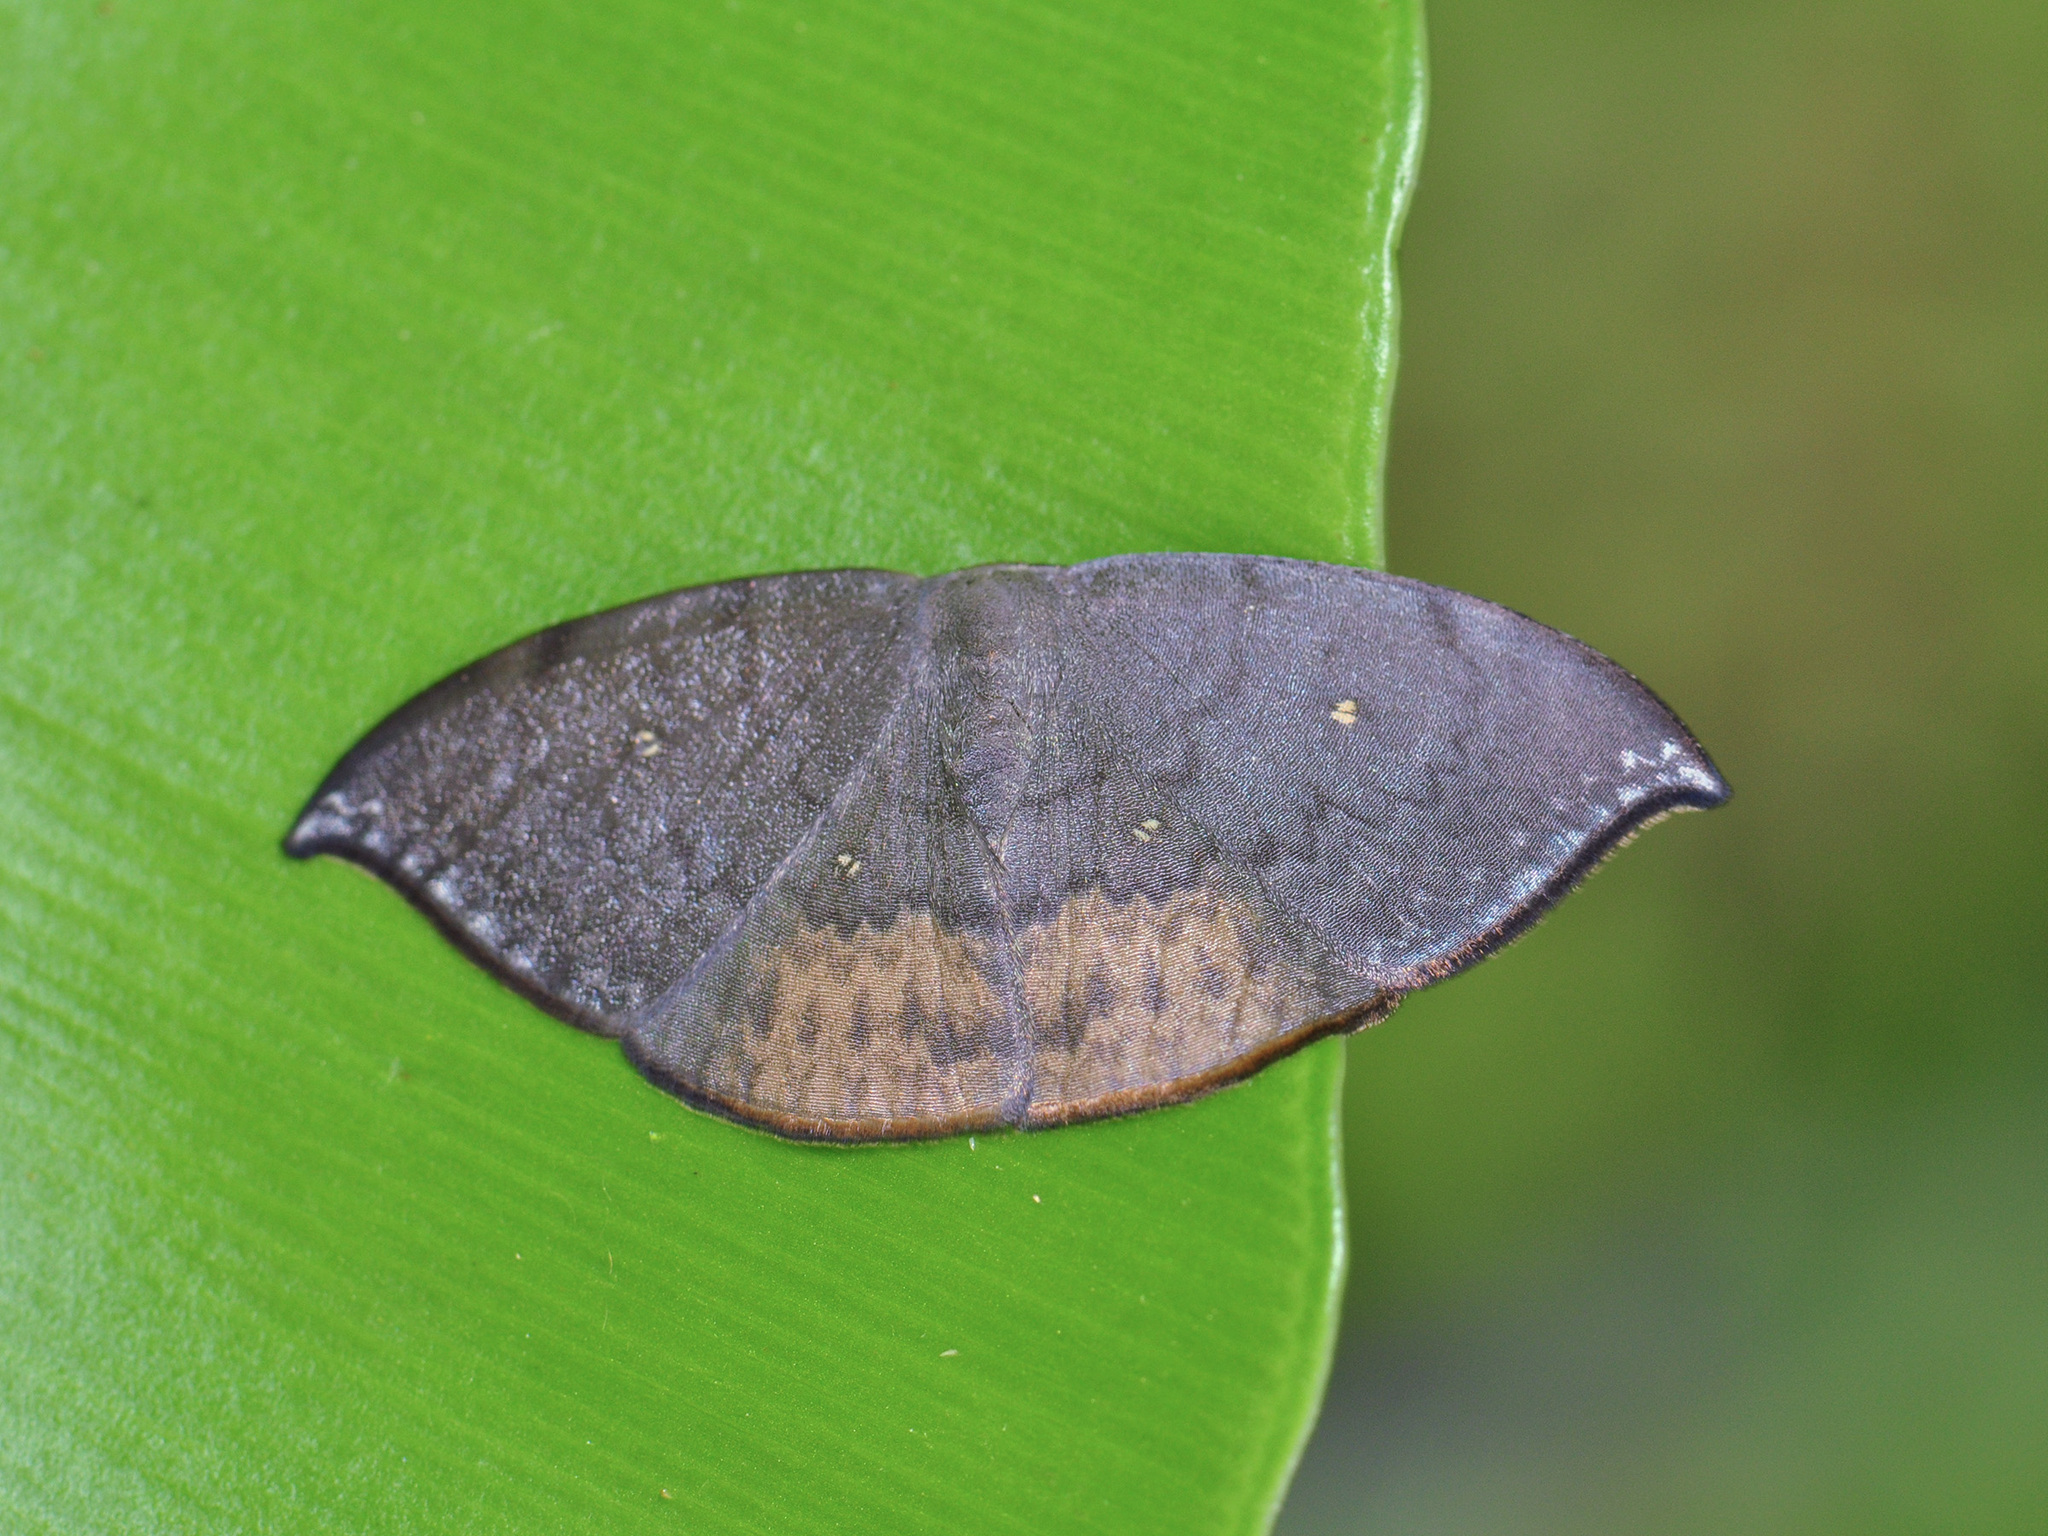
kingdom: Animalia
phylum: Arthropoda
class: Insecta
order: Lepidoptera
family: Drepanidae
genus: Paralbara
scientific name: Paralbara muscularia
